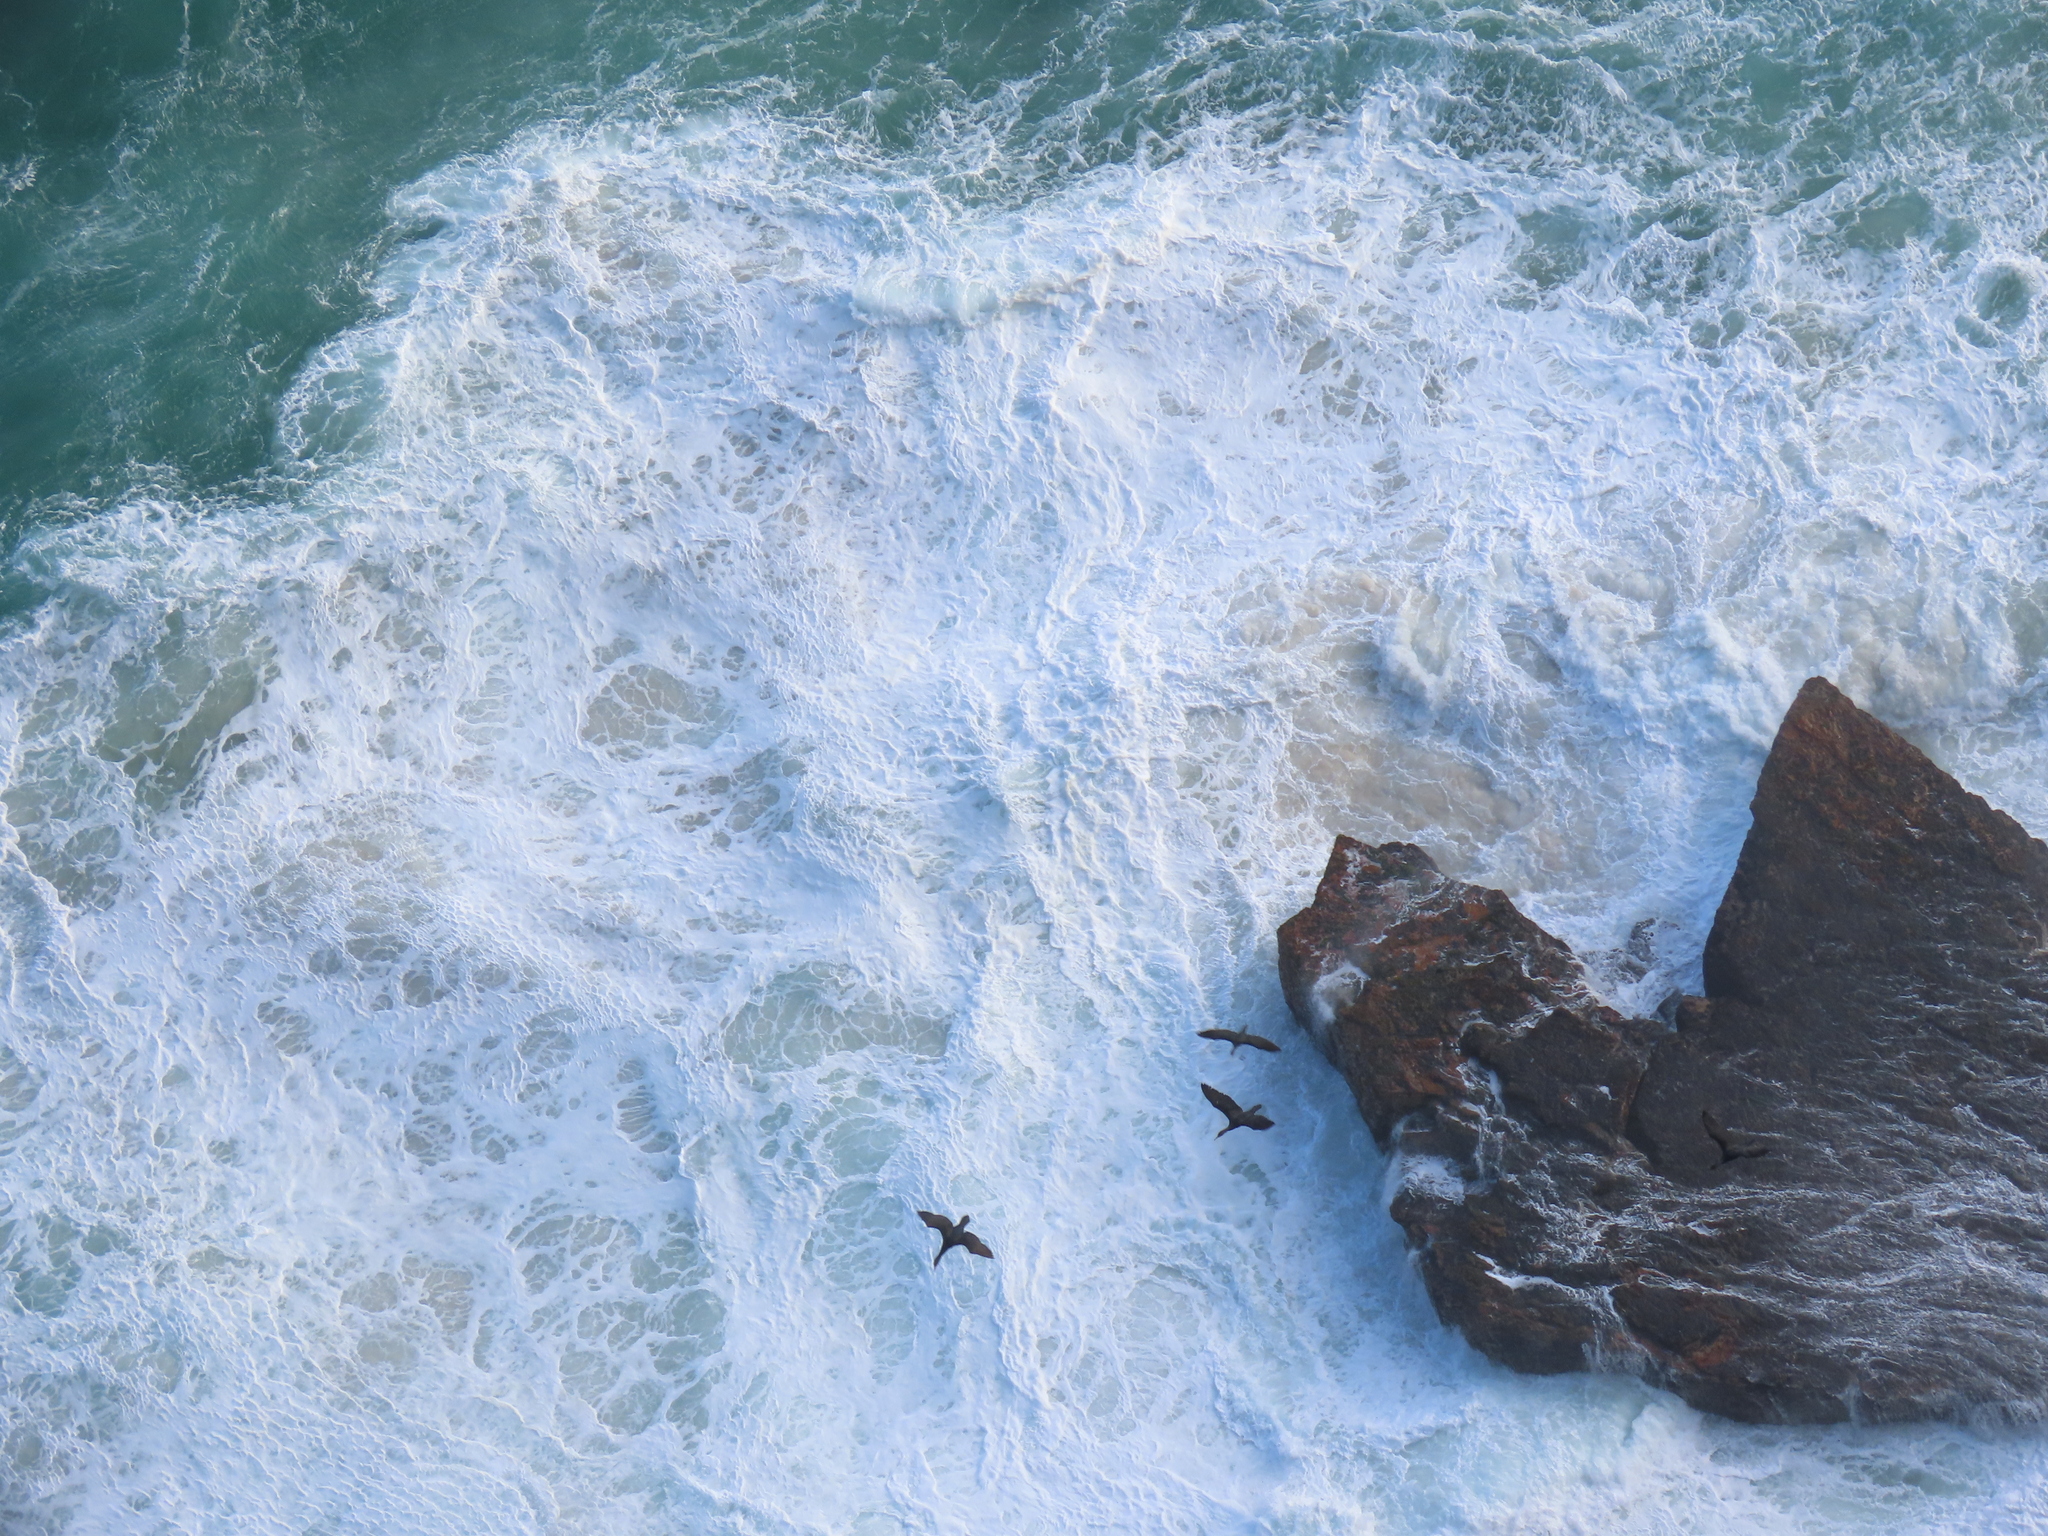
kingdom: Animalia
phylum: Chordata
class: Aves
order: Suliformes
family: Phalacrocoracidae
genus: Phalacrocorax
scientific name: Phalacrocorax capensis
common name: Cape cormorant
